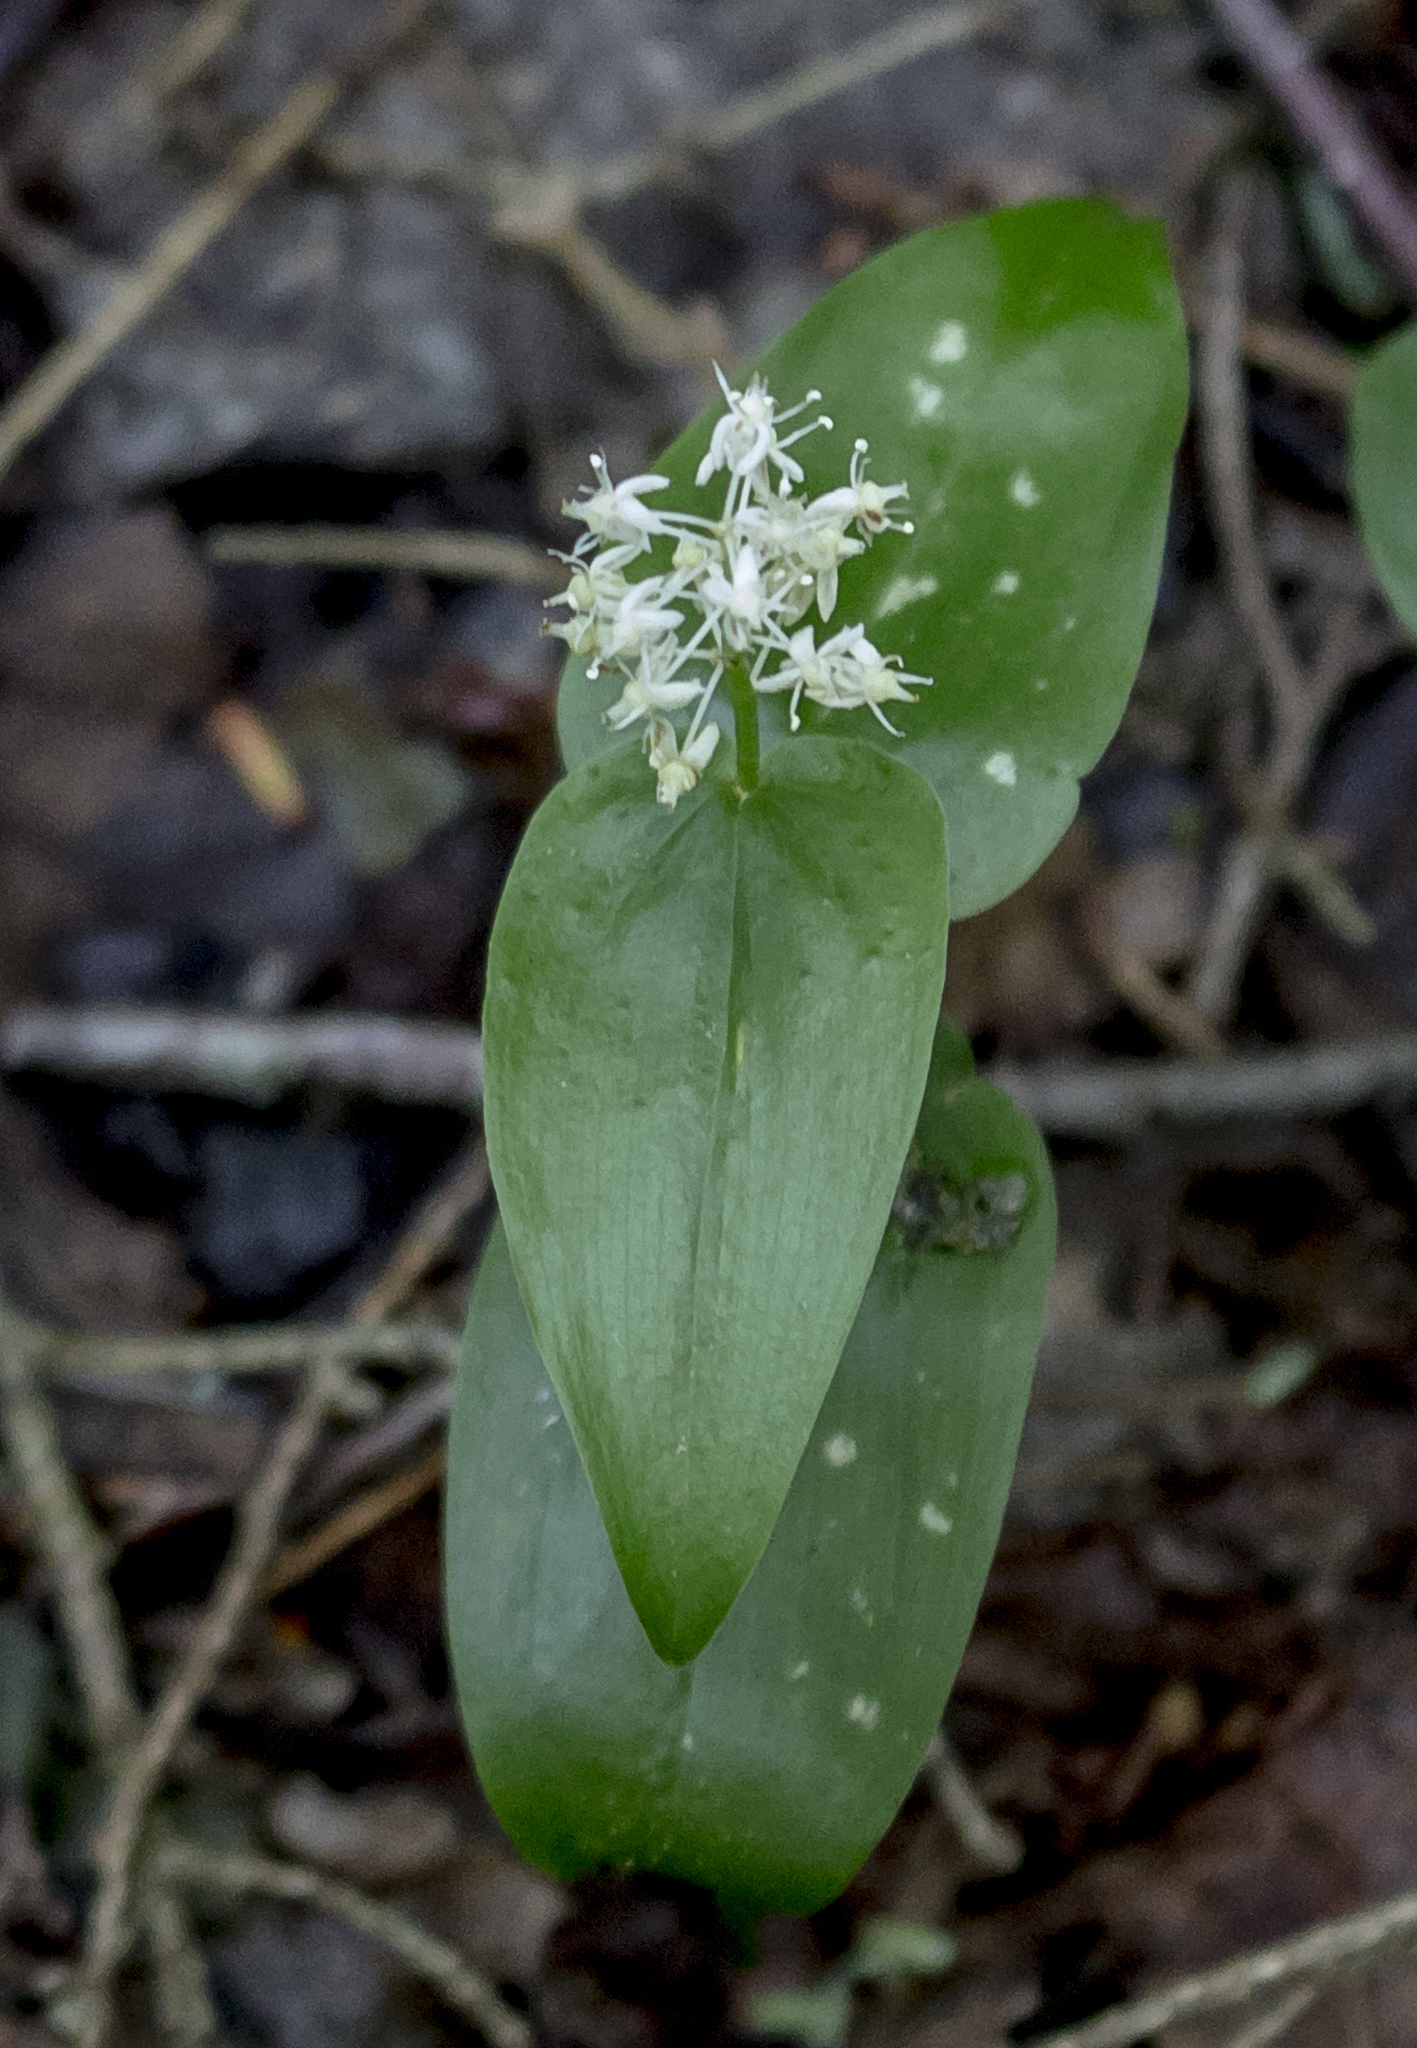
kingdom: Plantae
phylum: Tracheophyta
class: Liliopsida
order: Asparagales
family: Asparagaceae
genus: Maianthemum
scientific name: Maianthemum canadense
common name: False lily-of-the-valley
